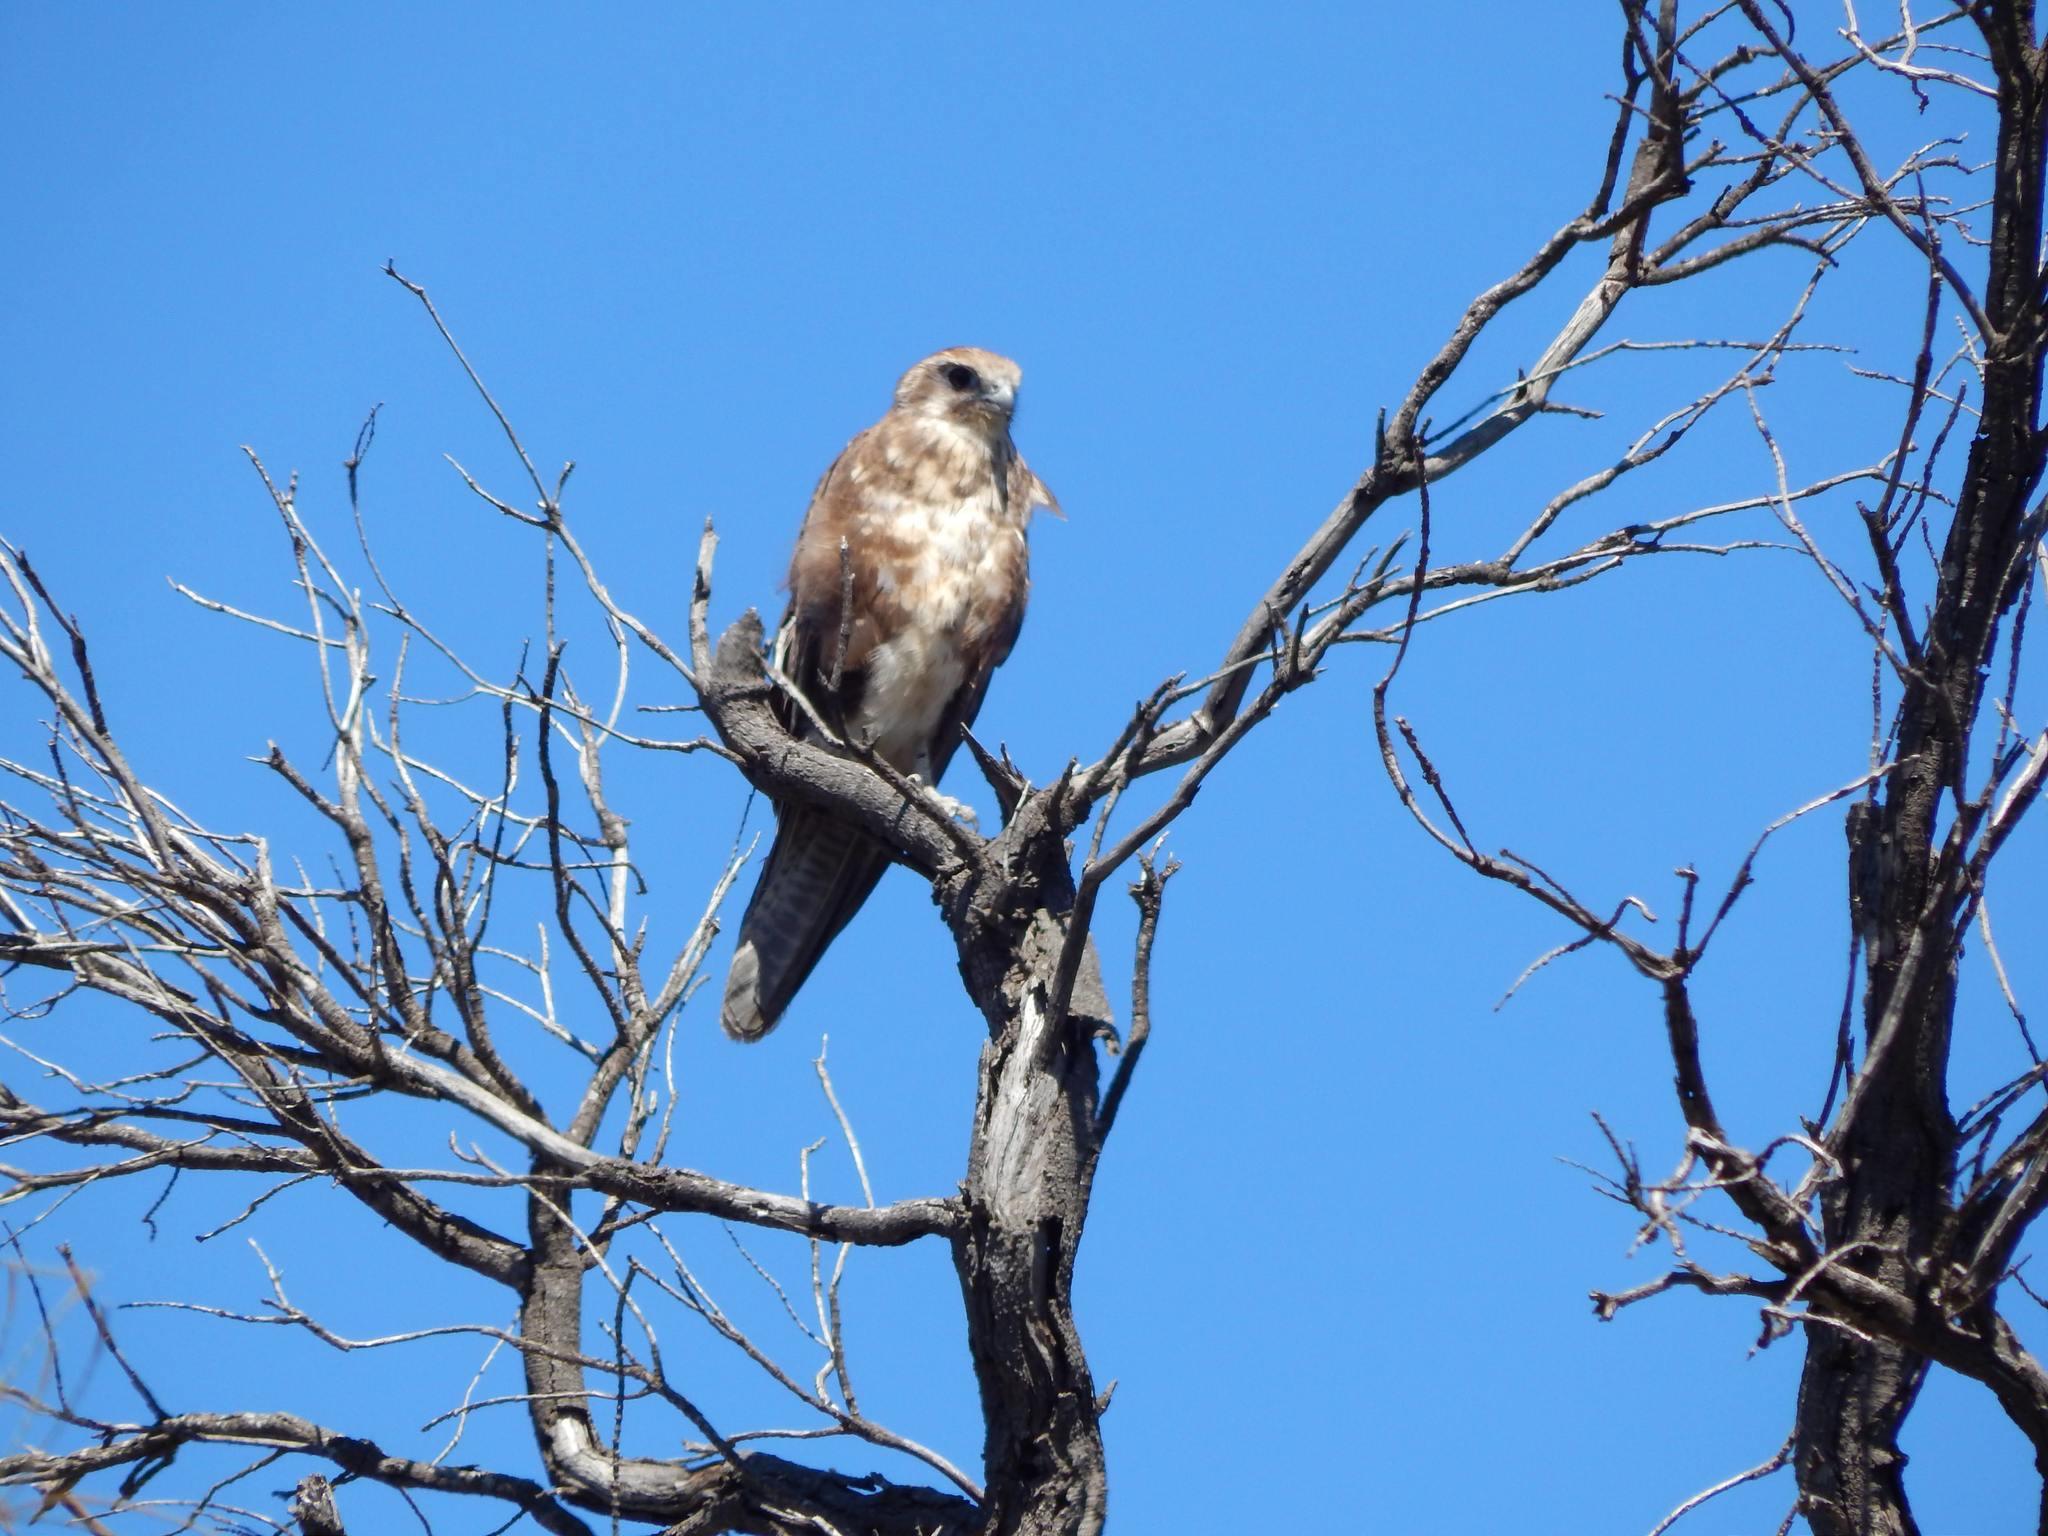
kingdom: Animalia
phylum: Chordata
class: Aves
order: Falconiformes
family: Falconidae
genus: Falco
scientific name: Falco berigora
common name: Brown falcon
